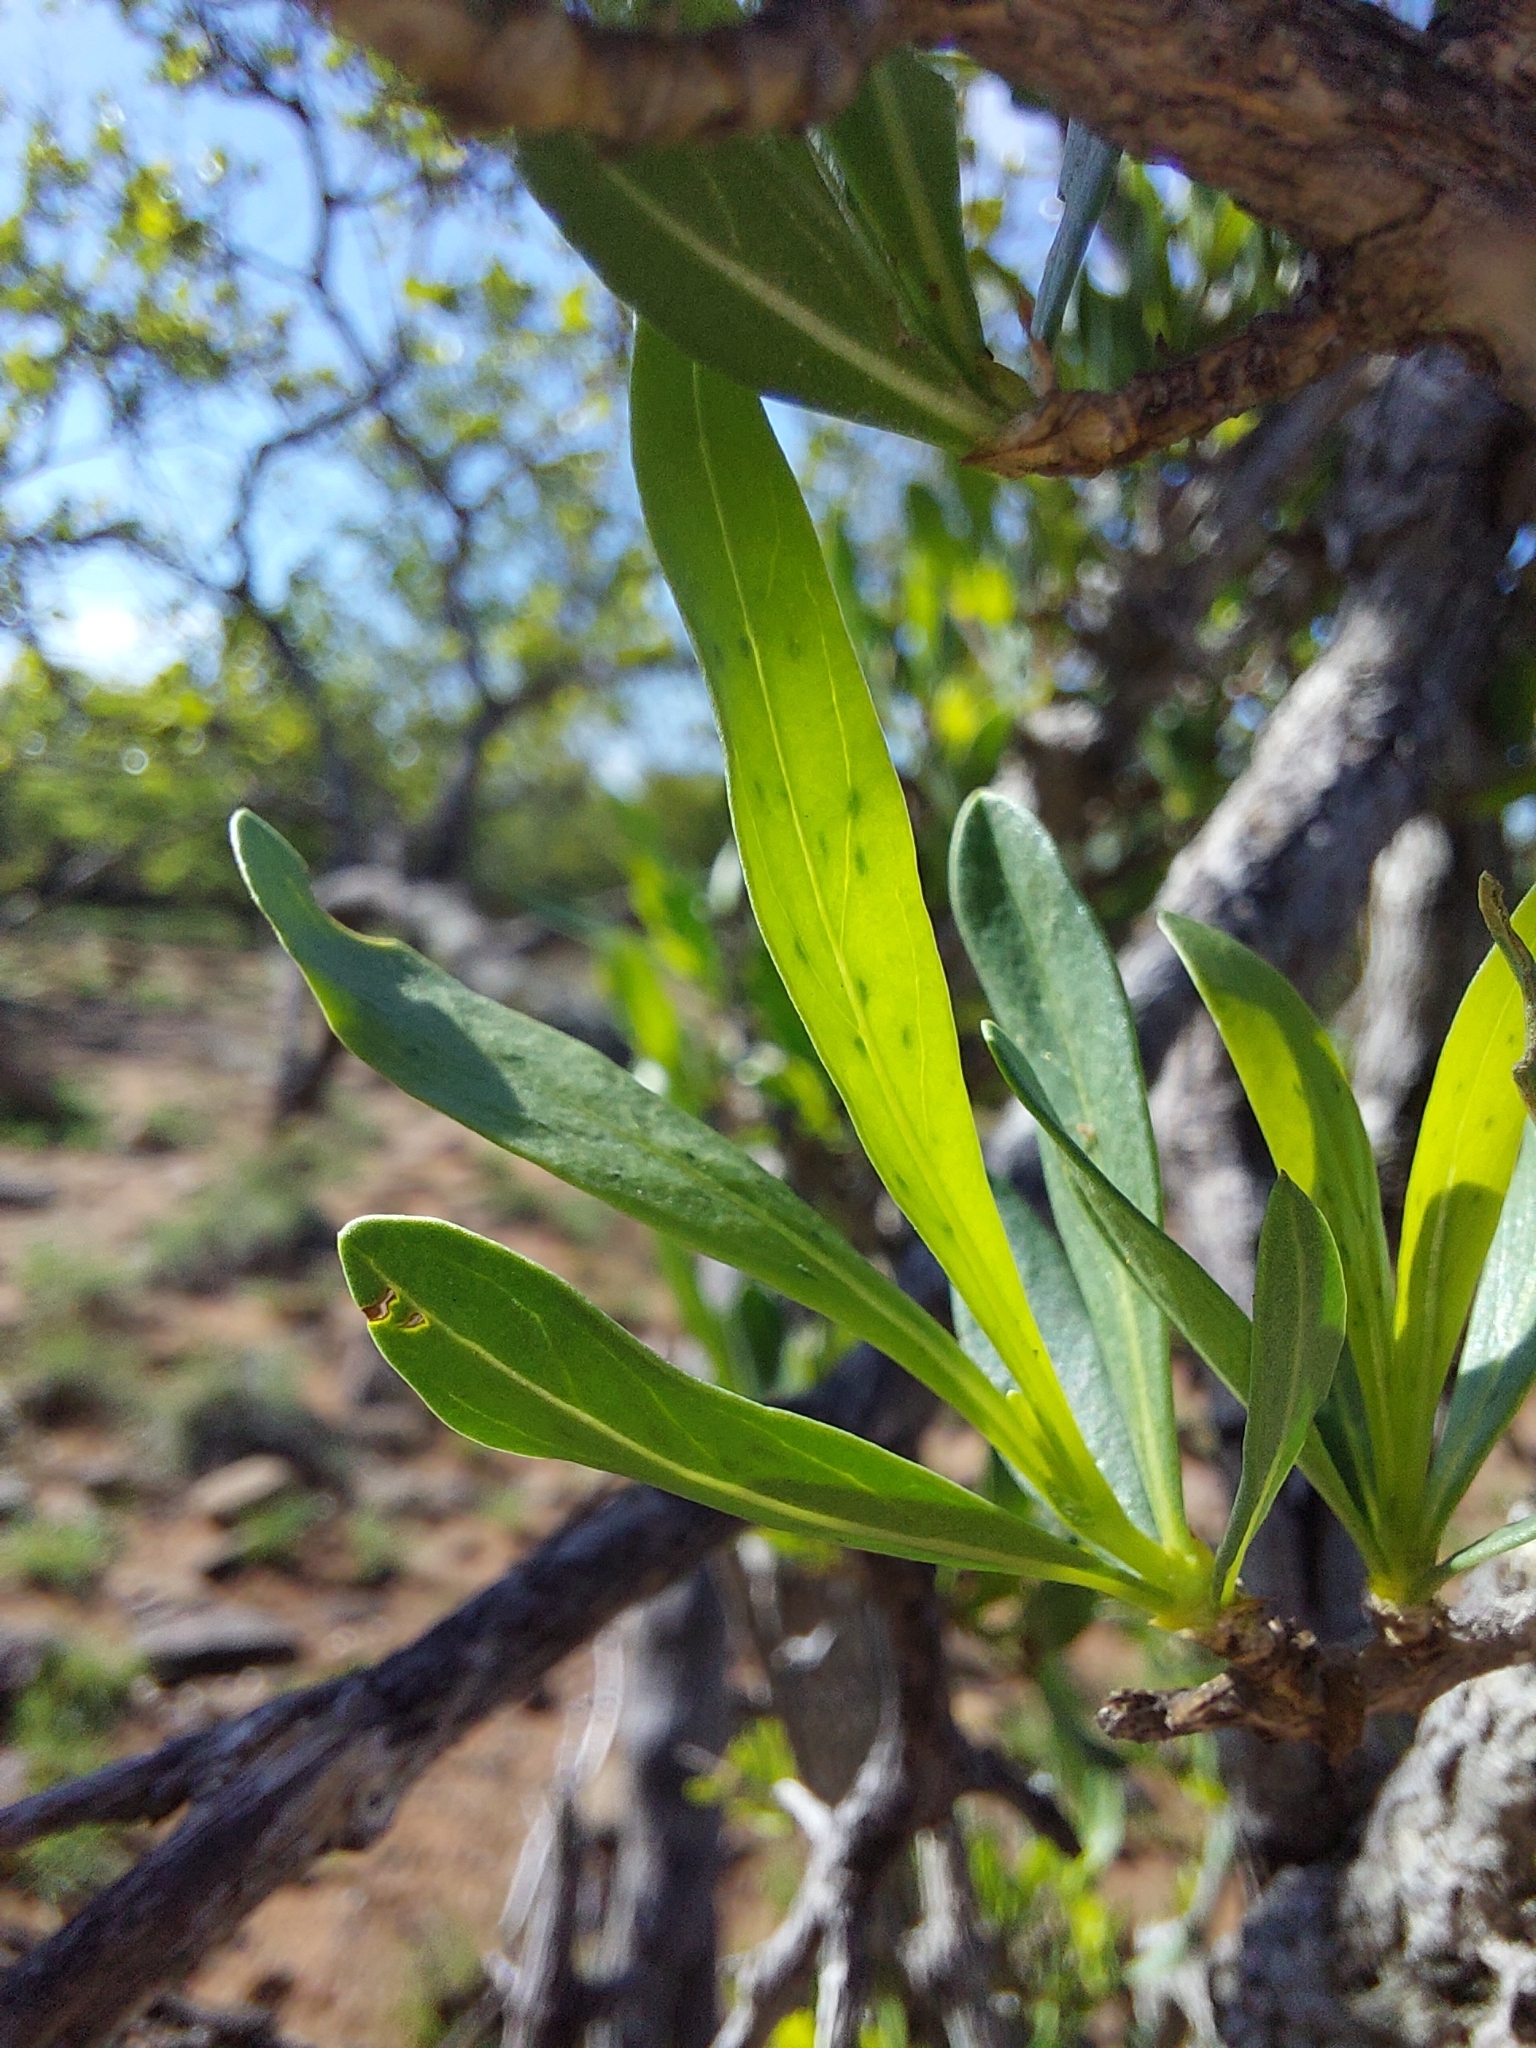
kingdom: Plantae
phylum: Tracheophyta
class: Magnoliopsida
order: Gentianales
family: Rubiaceae
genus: Pavetta
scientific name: Pavetta zeyheri
